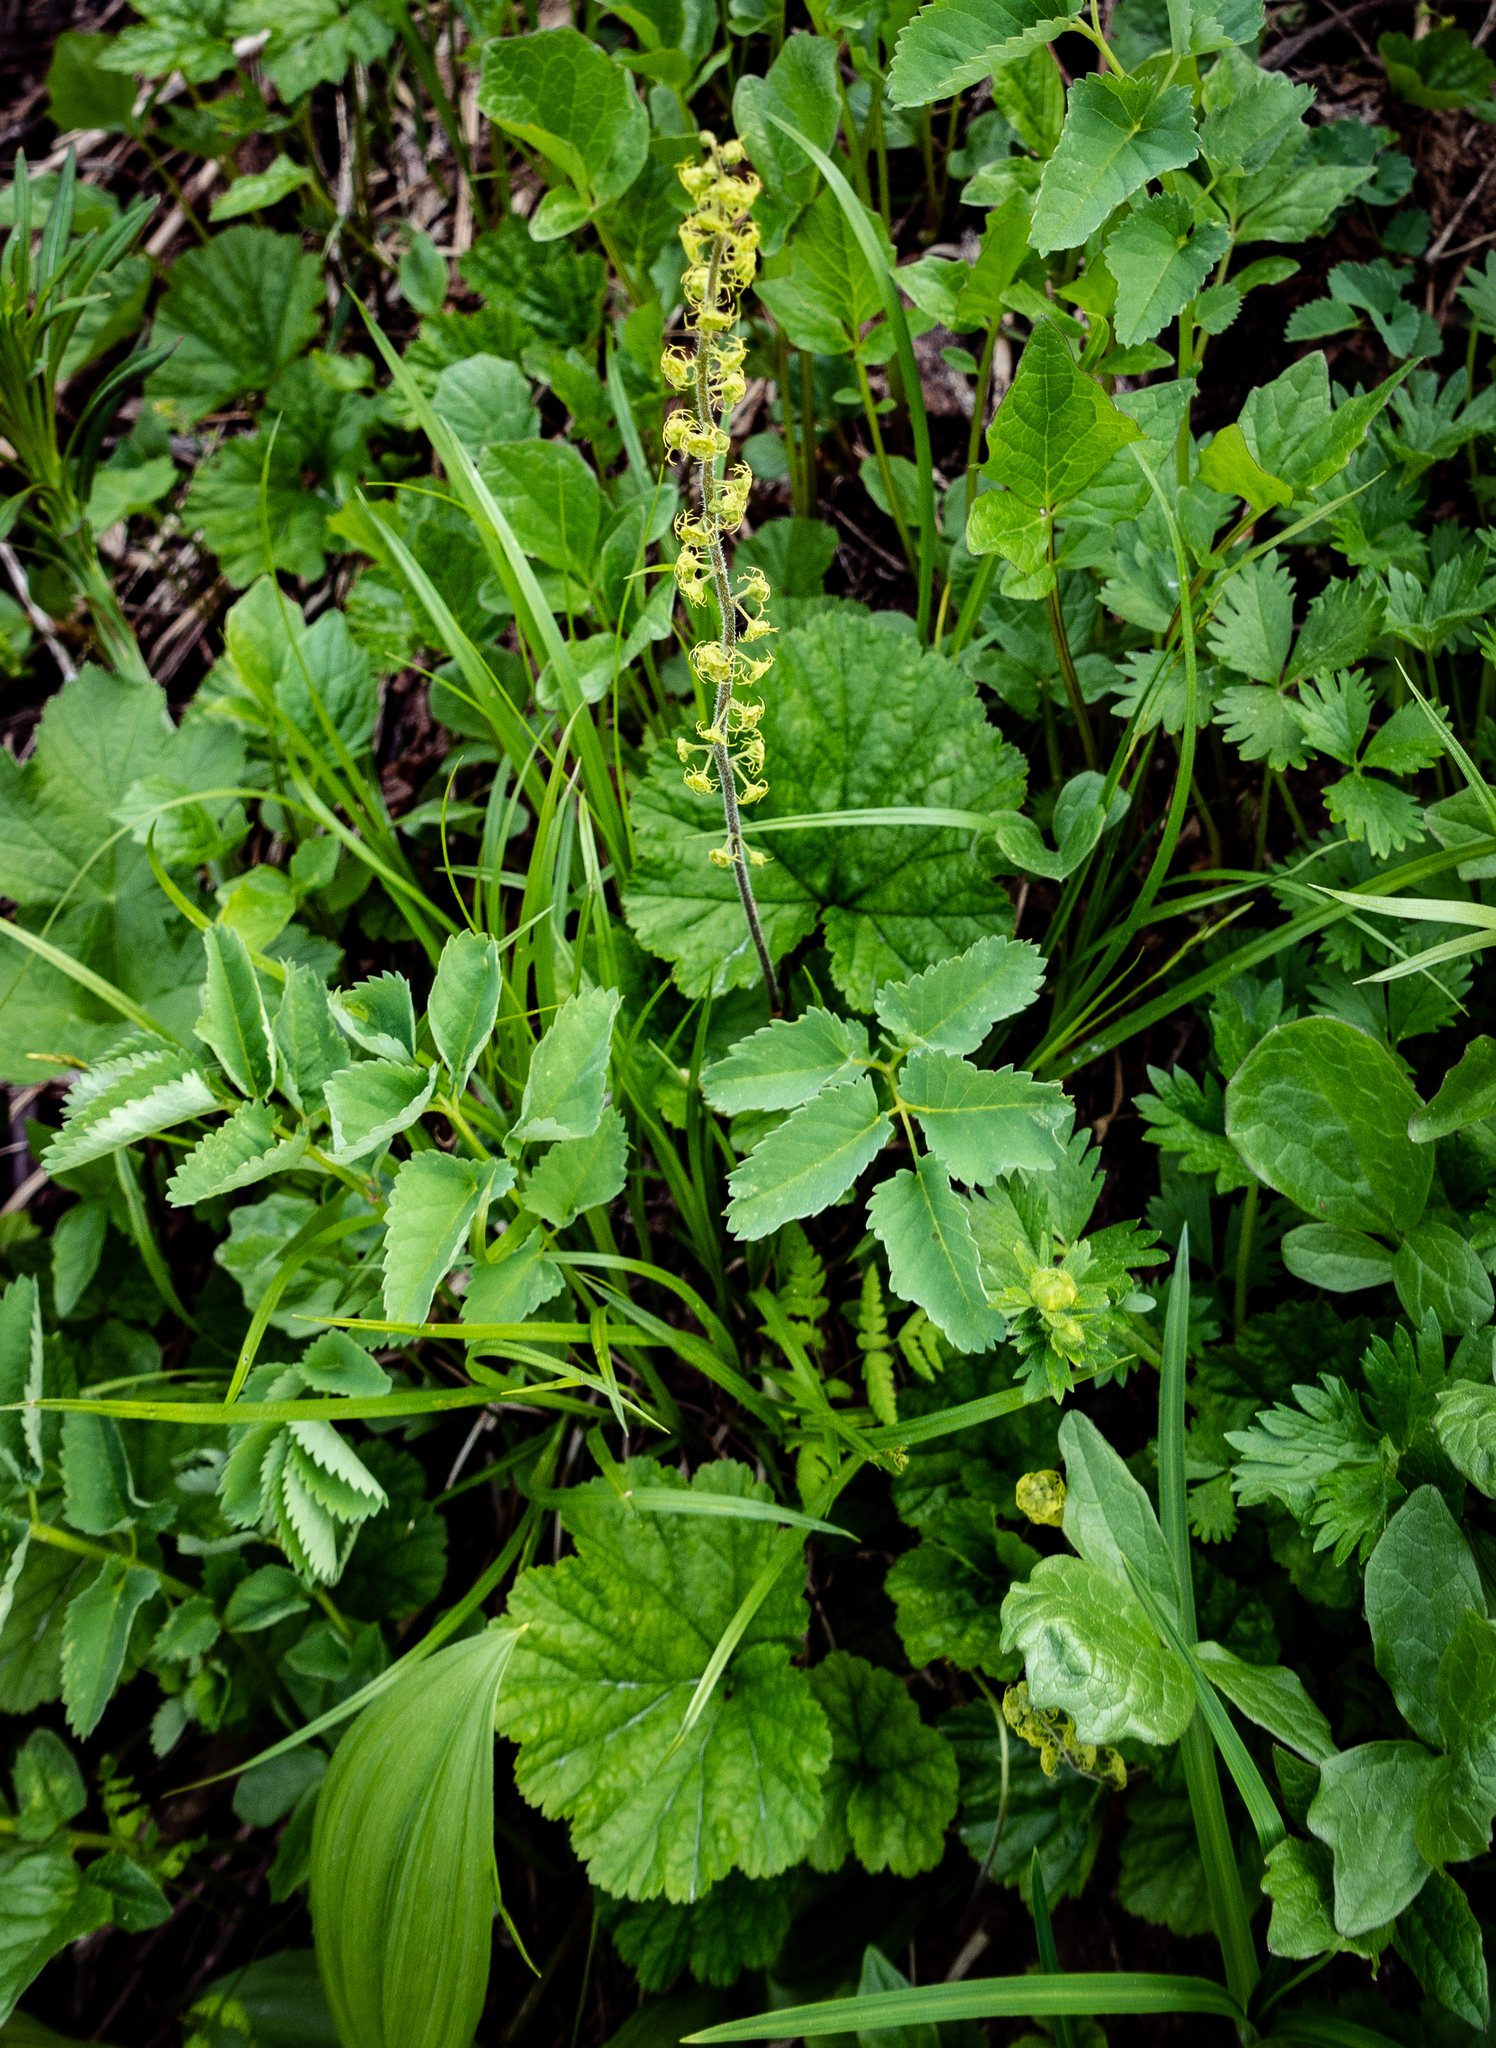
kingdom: Plantae
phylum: Tracheophyta
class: Magnoliopsida
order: Saxifragales
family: Saxifragaceae
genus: Brewerimitella
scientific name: Brewerimitella breweri
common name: Brewer's bishop's-cap
